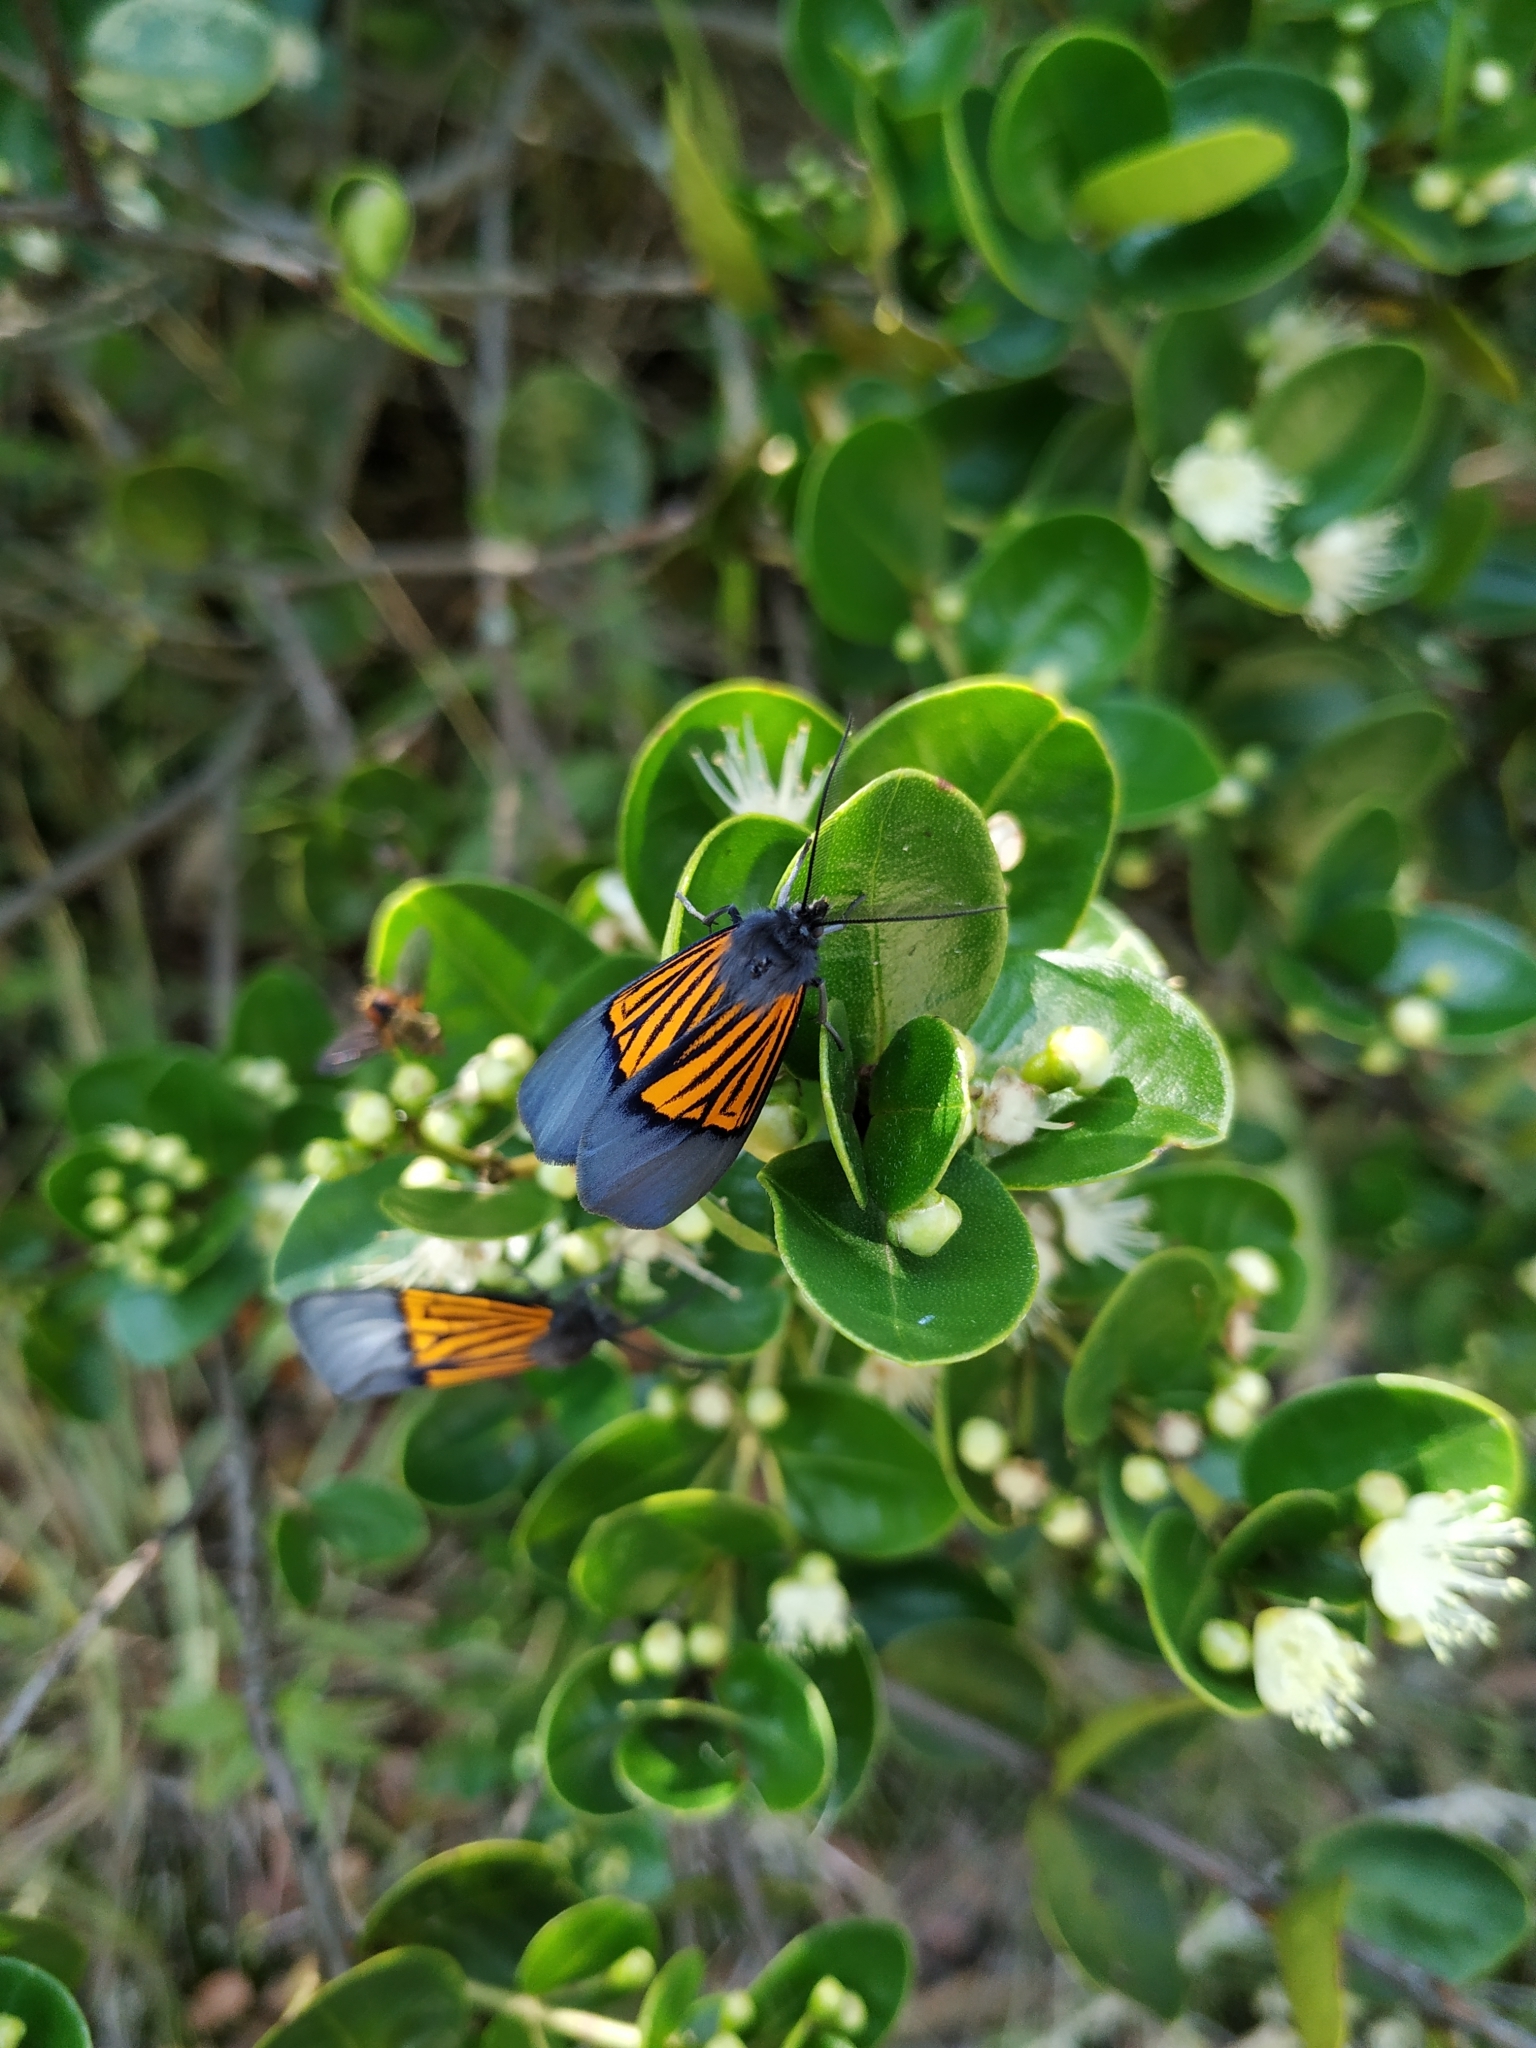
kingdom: Animalia
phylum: Arthropoda
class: Insecta
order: Lepidoptera
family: Notodontidae
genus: Scea
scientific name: Scea
